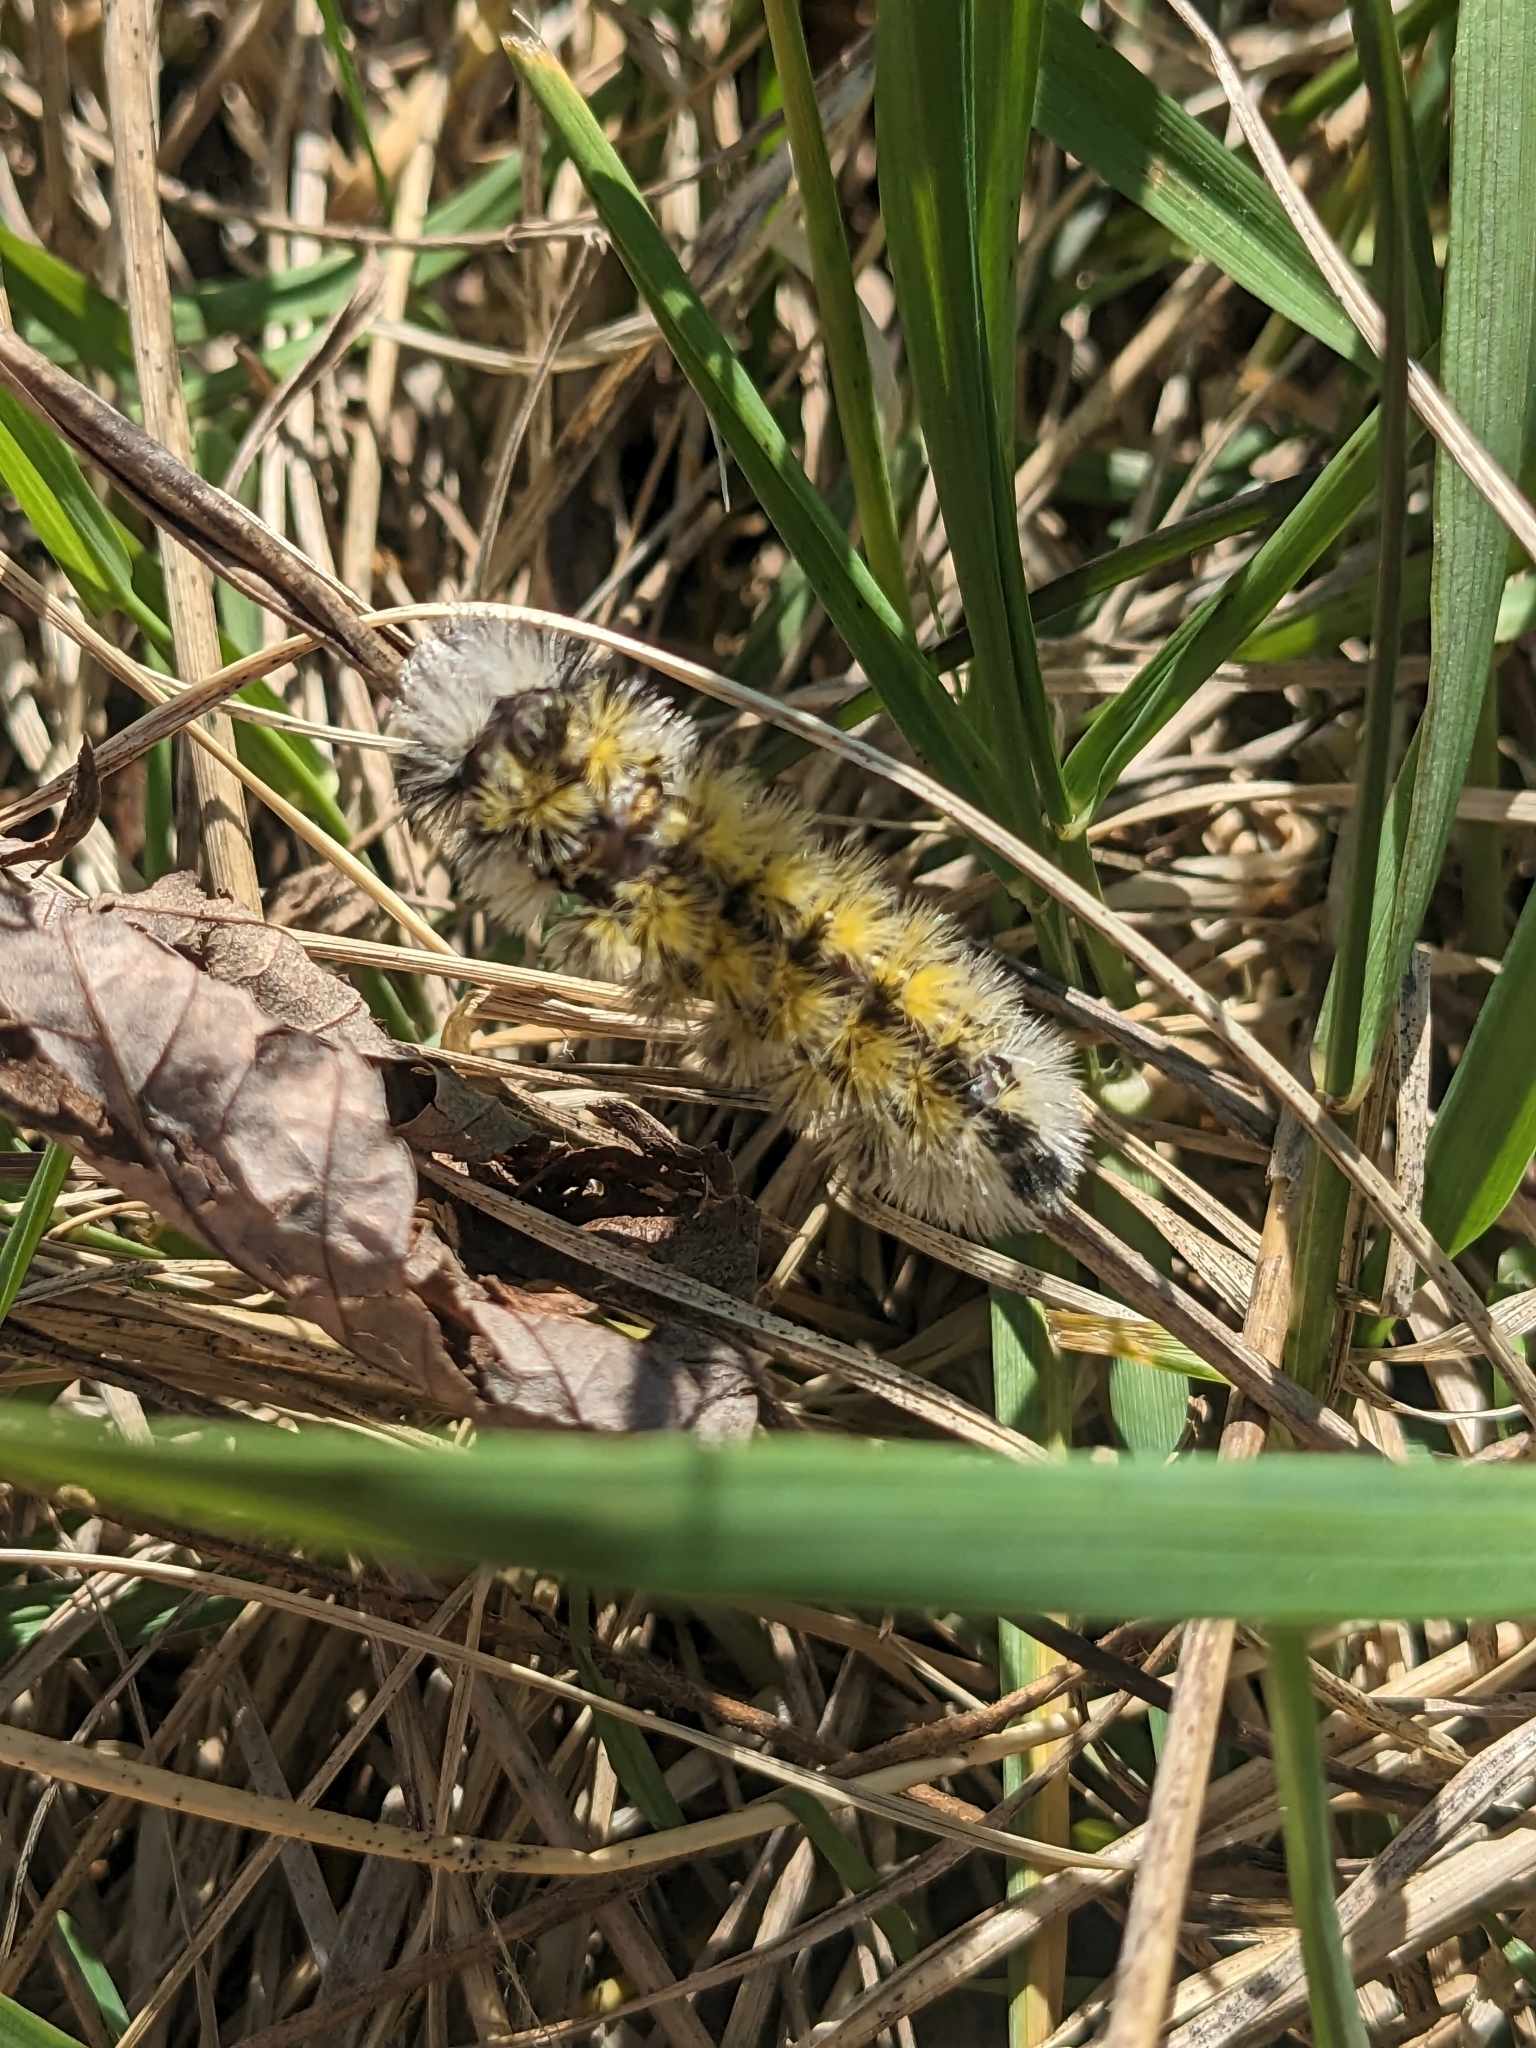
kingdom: Animalia
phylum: Arthropoda
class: Insecta
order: Lepidoptera
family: Erebidae
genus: Ctenucha
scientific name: Ctenucha virginica
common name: Virginia ctenucha moth
